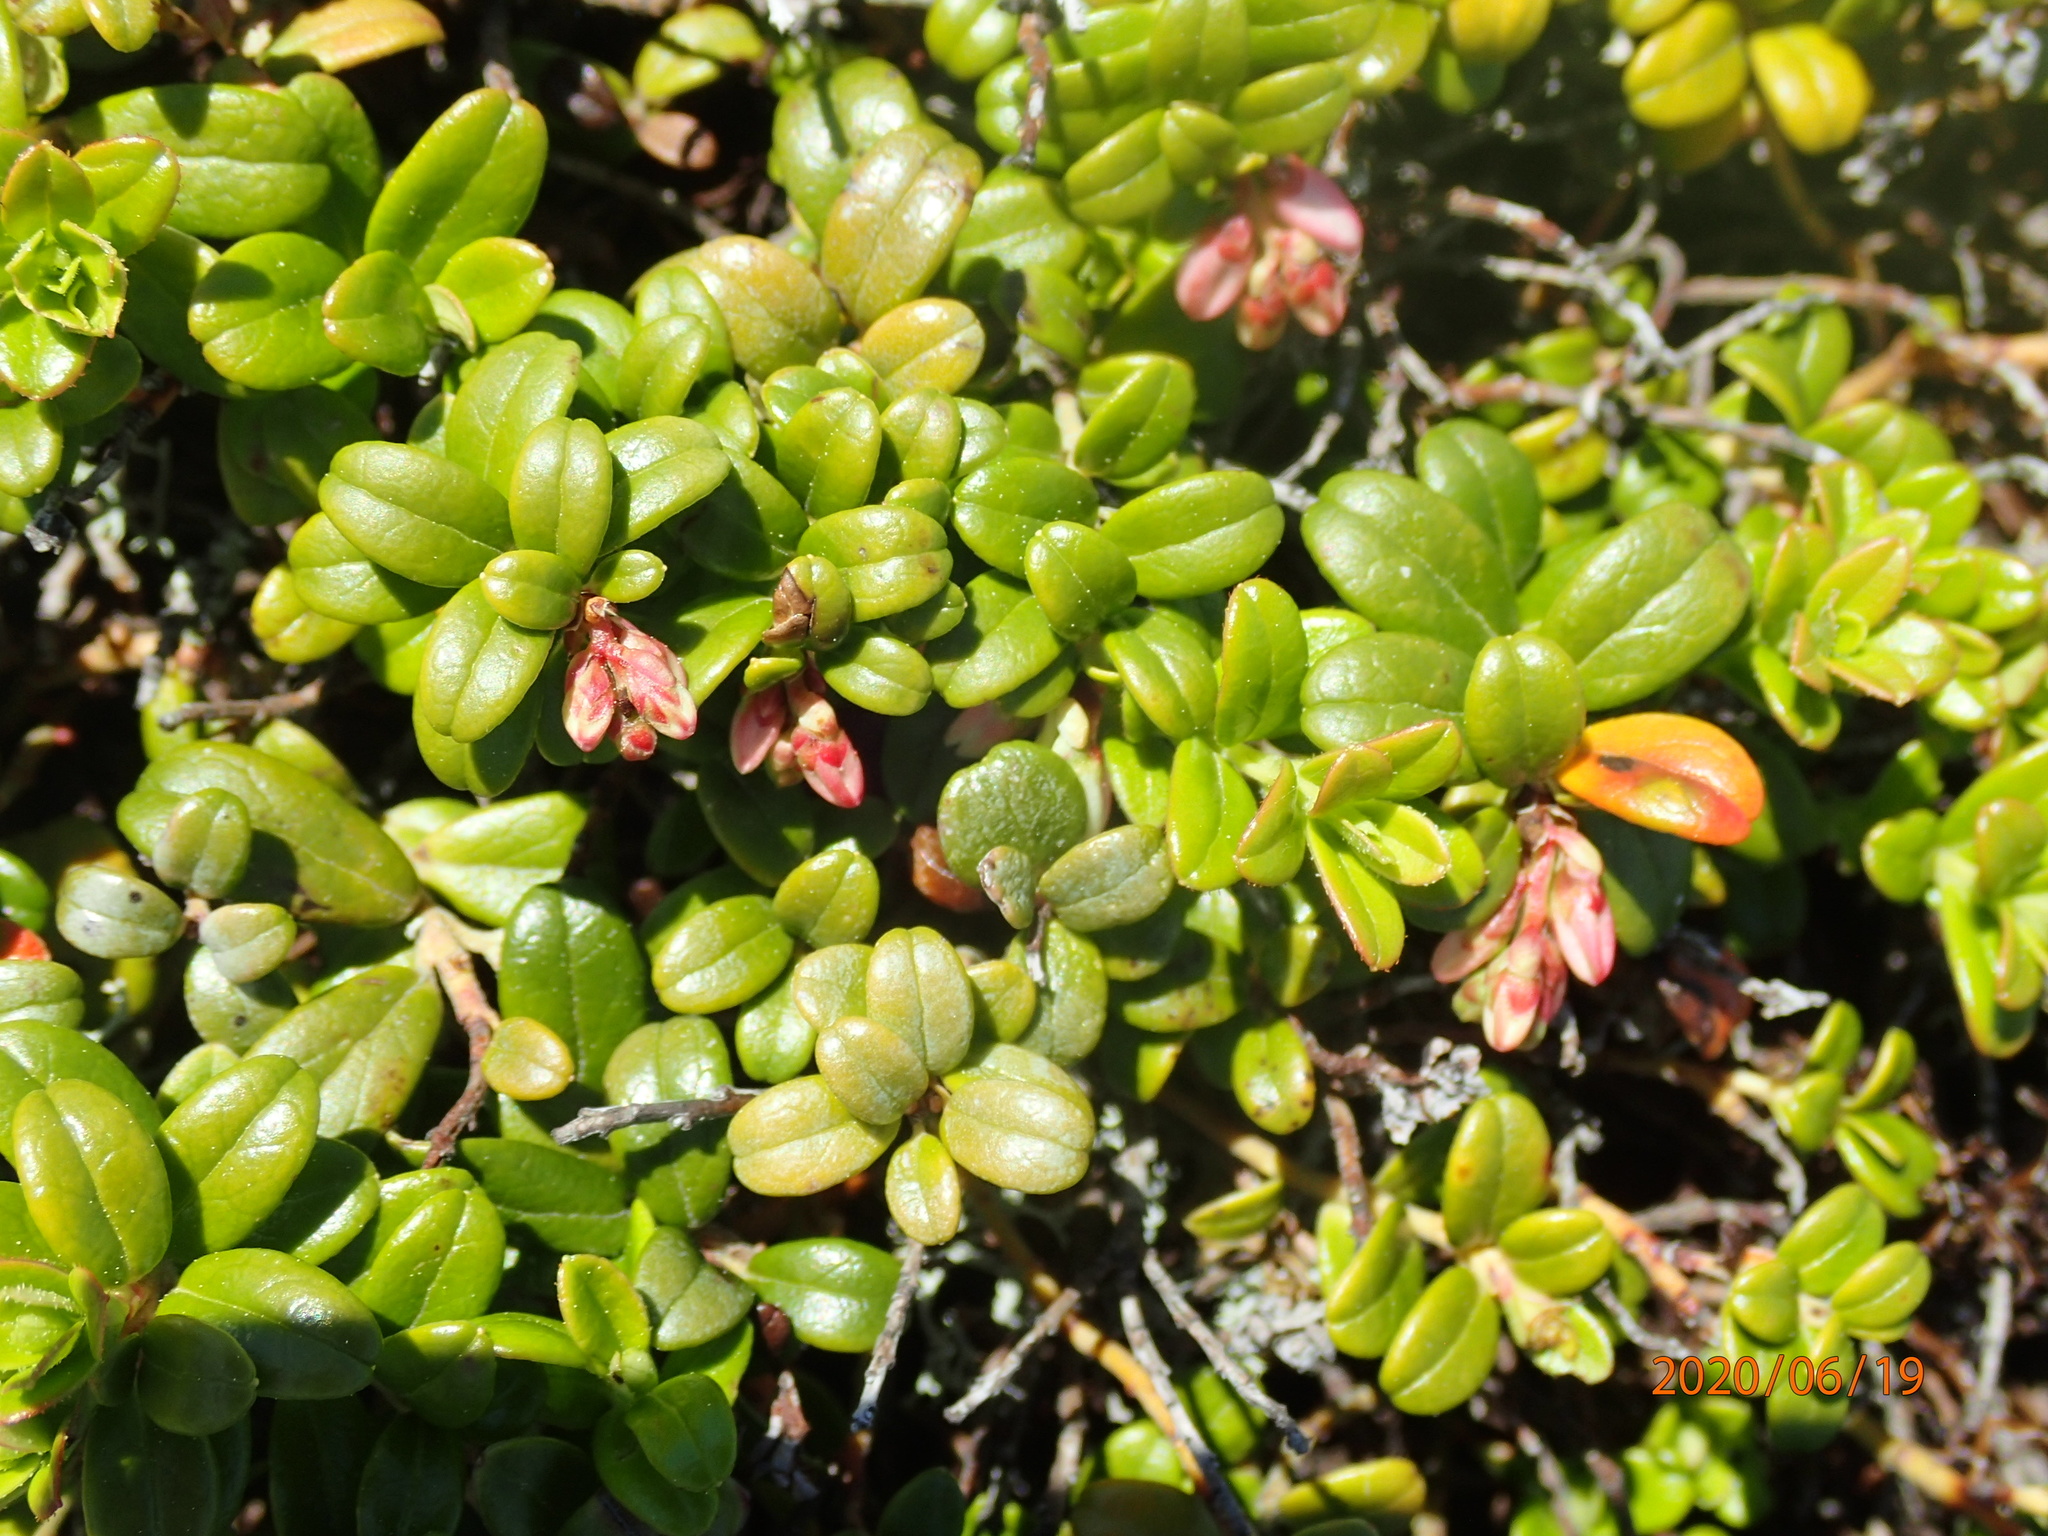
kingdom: Plantae
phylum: Tracheophyta
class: Magnoliopsida
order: Ericales
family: Ericaceae
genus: Vaccinium
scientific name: Vaccinium vitis-idaea
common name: Cowberry
